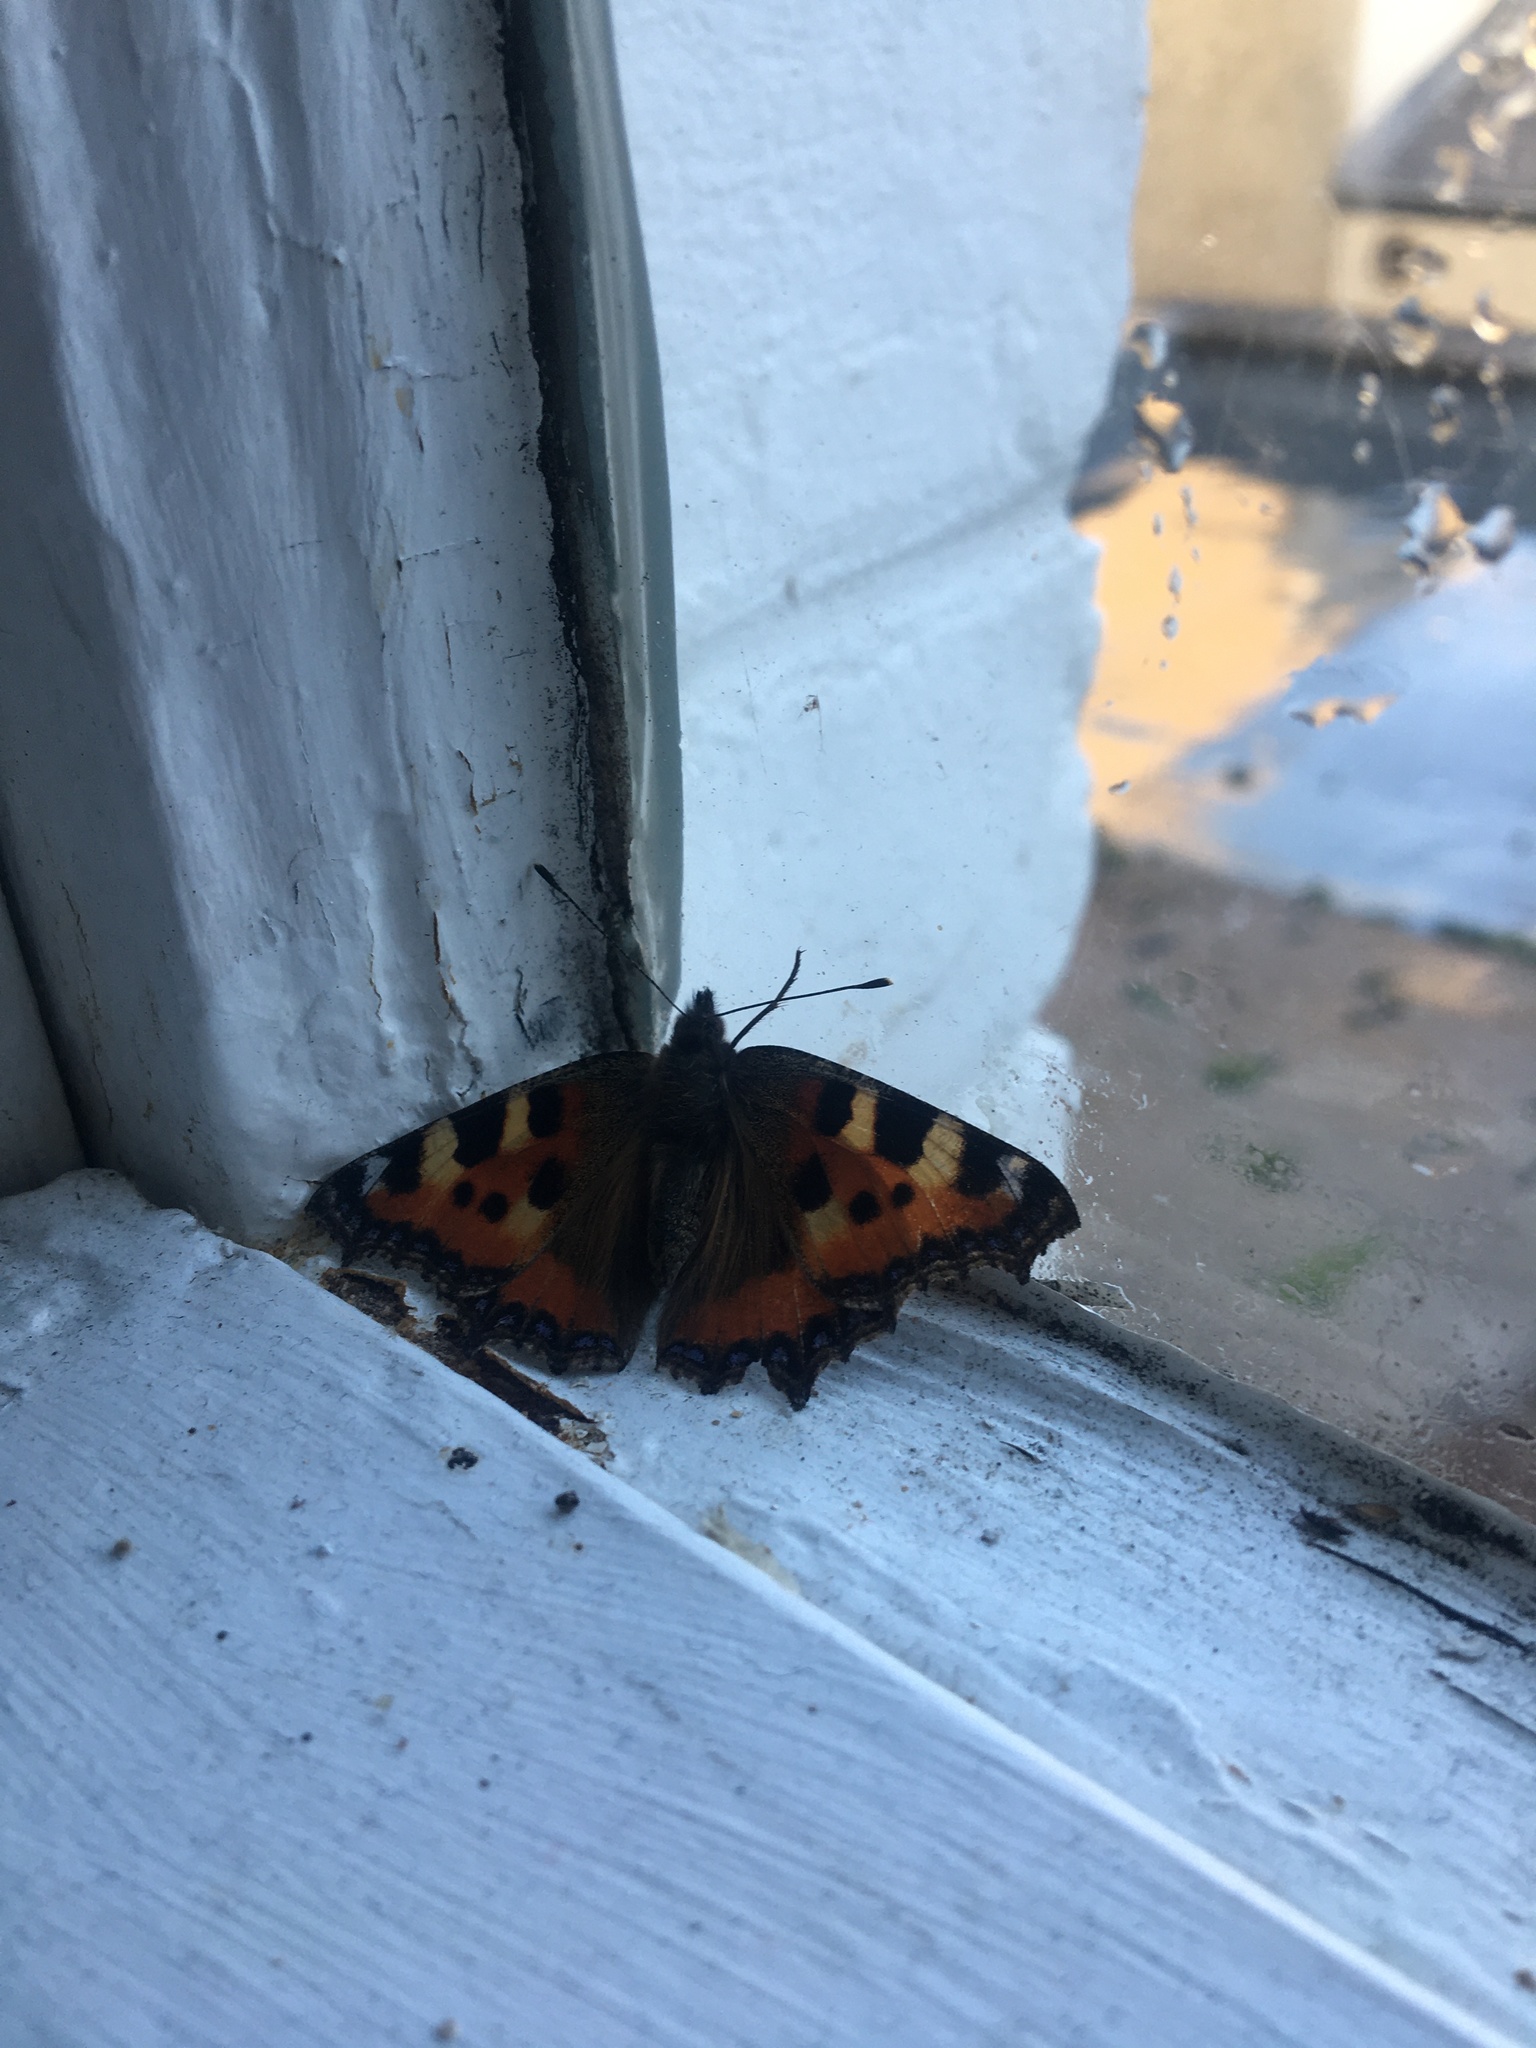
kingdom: Animalia
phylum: Arthropoda
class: Insecta
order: Lepidoptera
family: Nymphalidae
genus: Aglais
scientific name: Aglais urticae
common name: Small tortoiseshell
